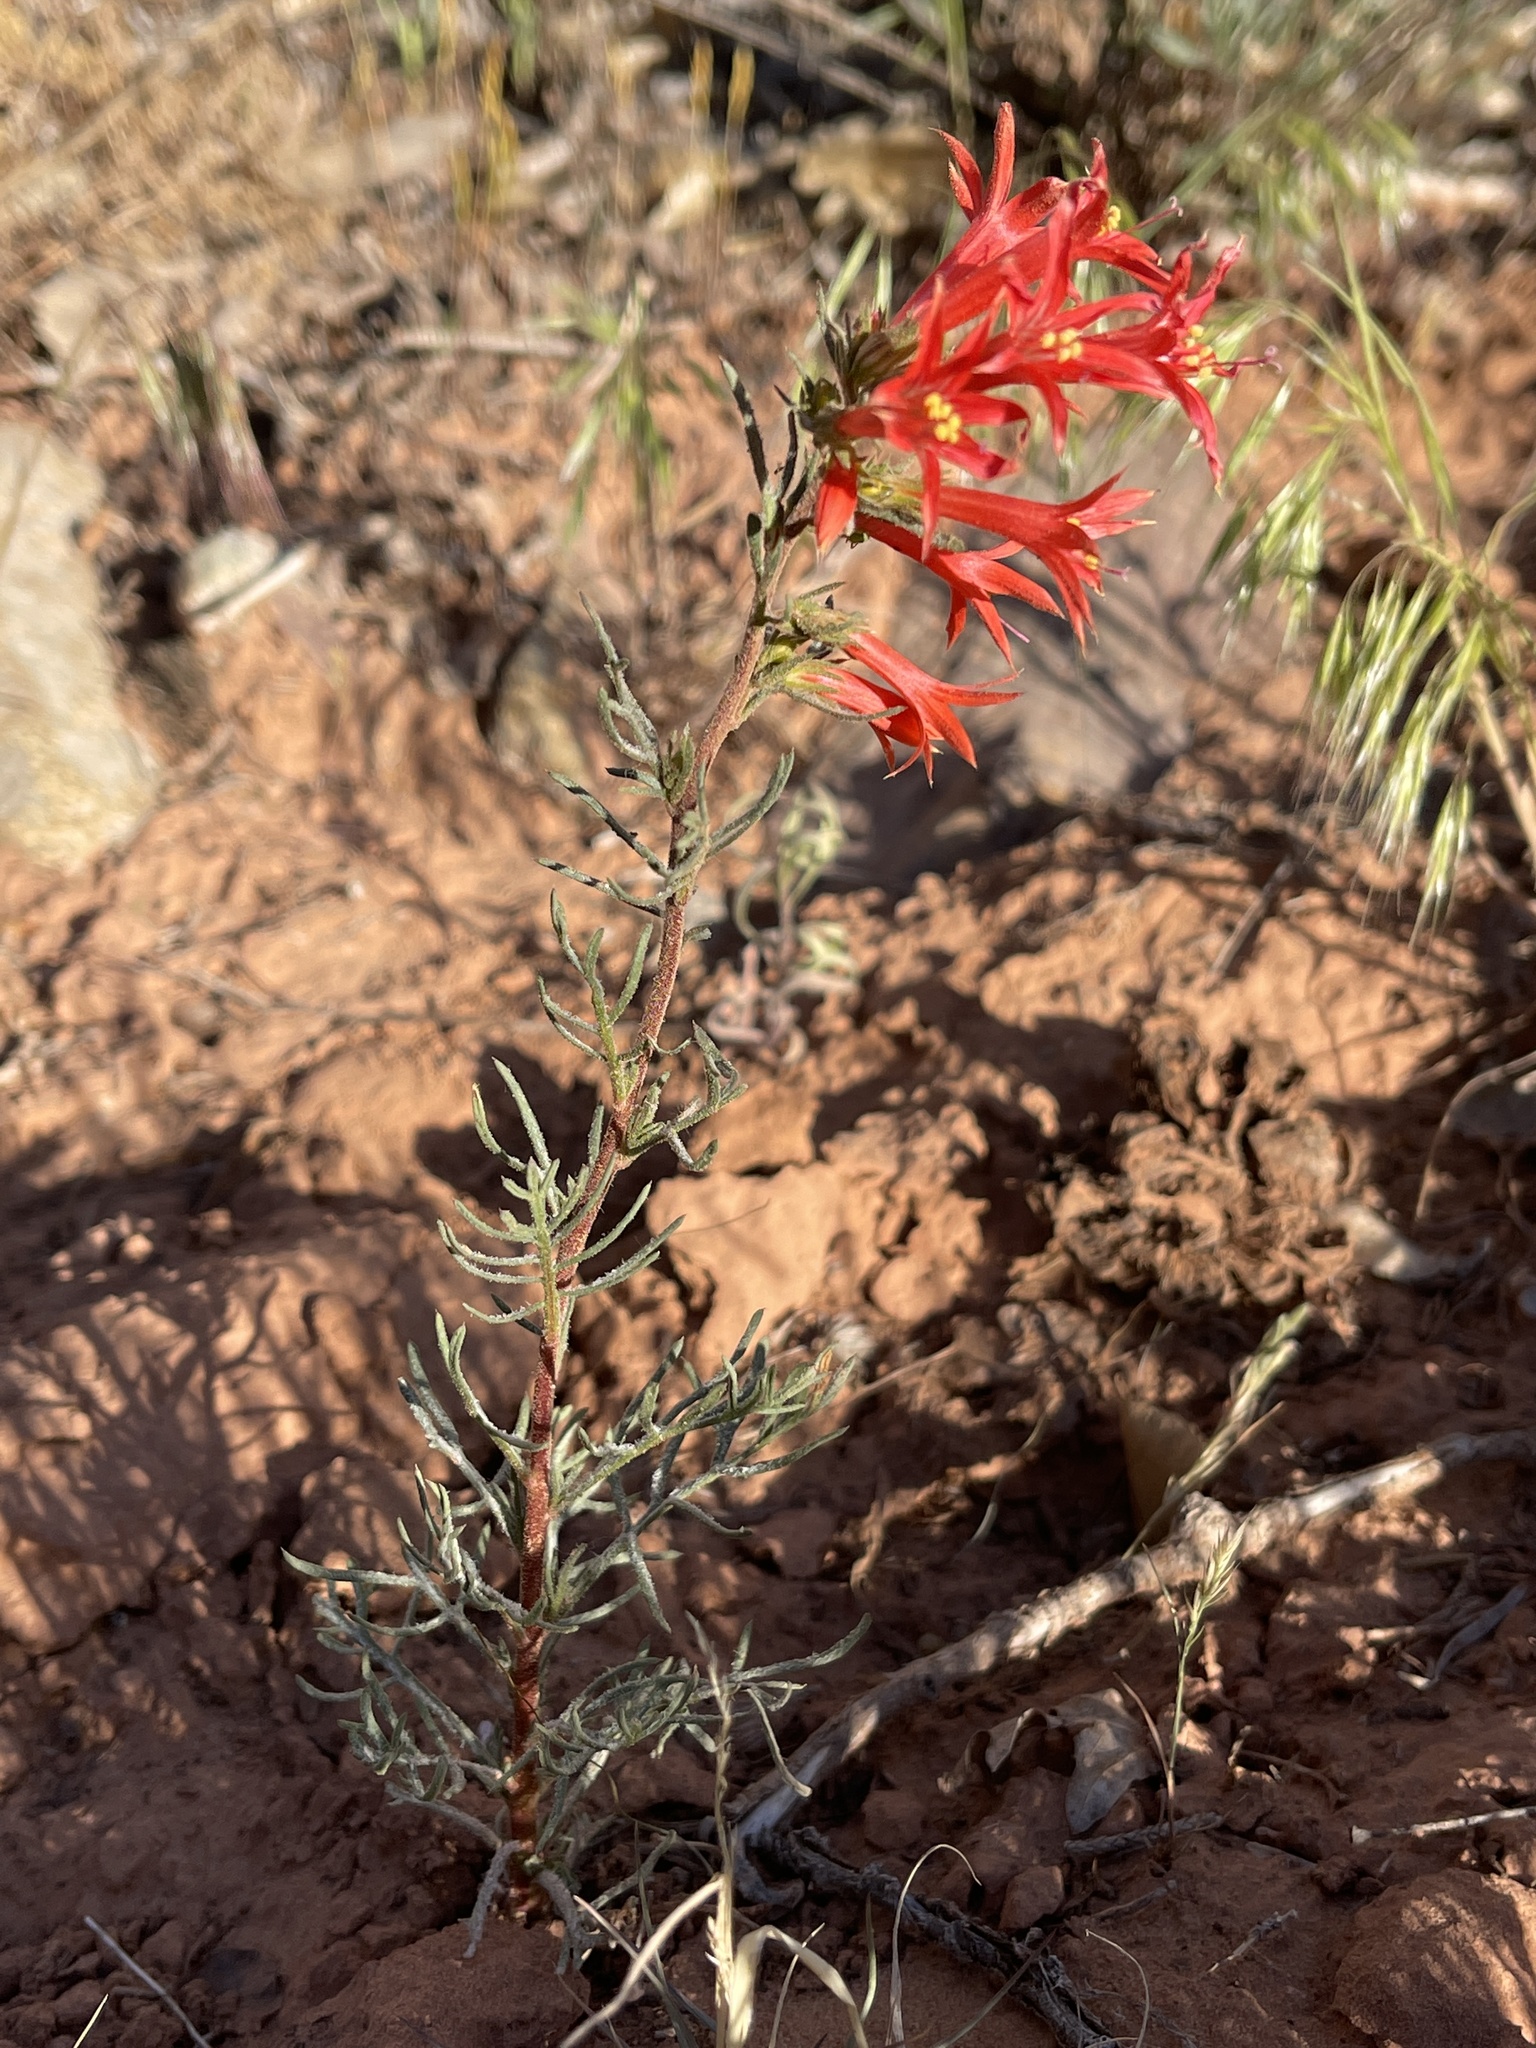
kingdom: Plantae
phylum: Tracheophyta
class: Magnoliopsida
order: Ericales
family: Polemoniaceae
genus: Ipomopsis
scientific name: Ipomopsis aggregata
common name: Scarlet gilia
